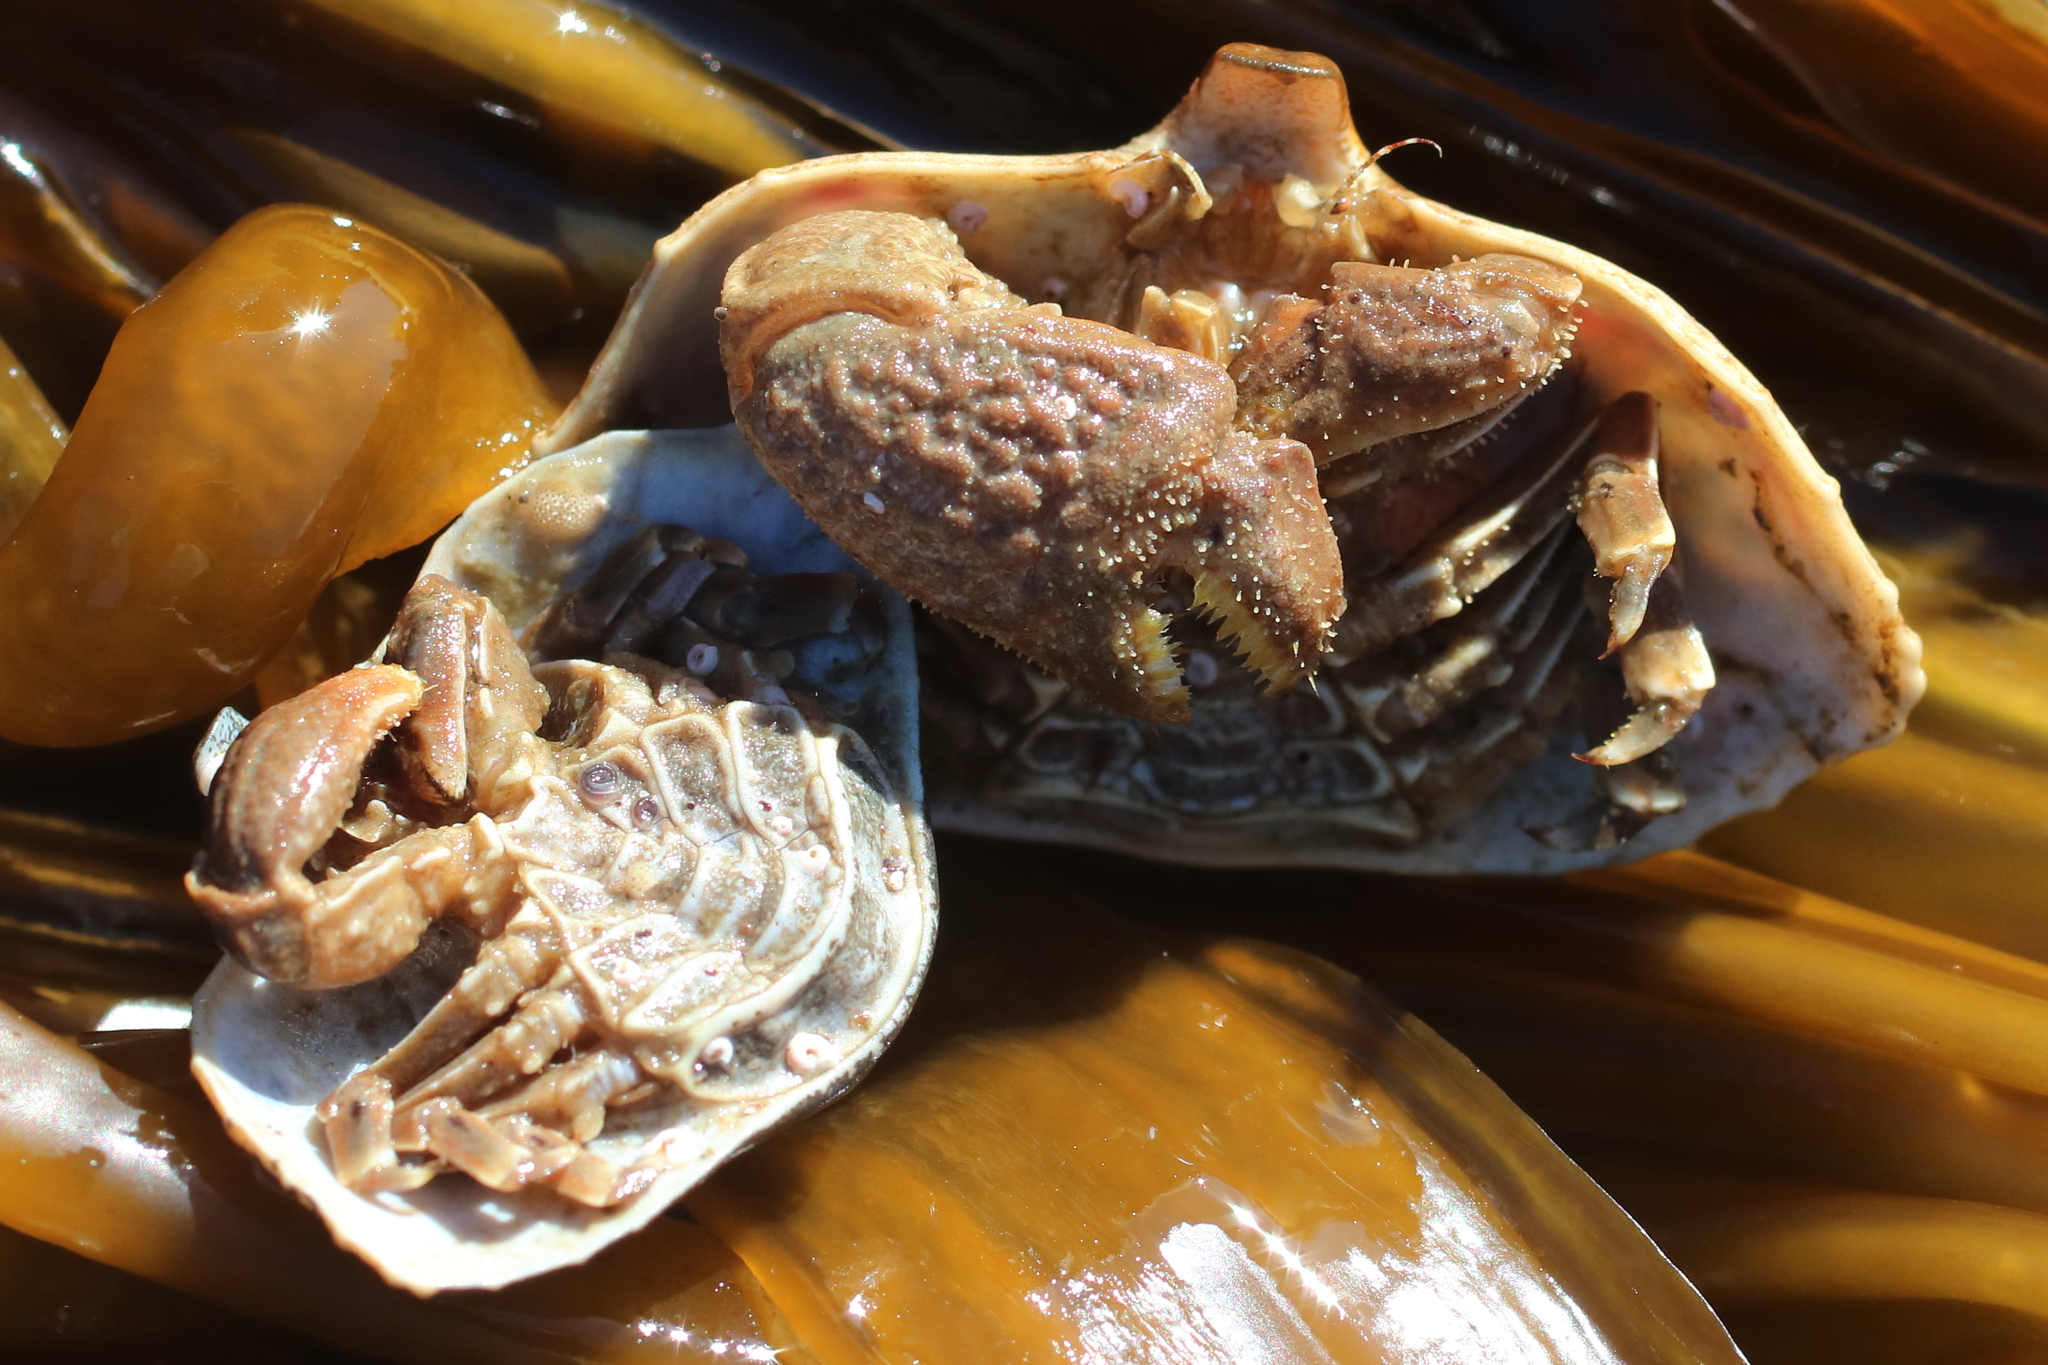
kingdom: Animalia
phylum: Arthropoda
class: Malacostraca
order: Decapoda
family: Lithodidae
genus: Cryptolithodes
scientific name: Cryptolithodes typicus
